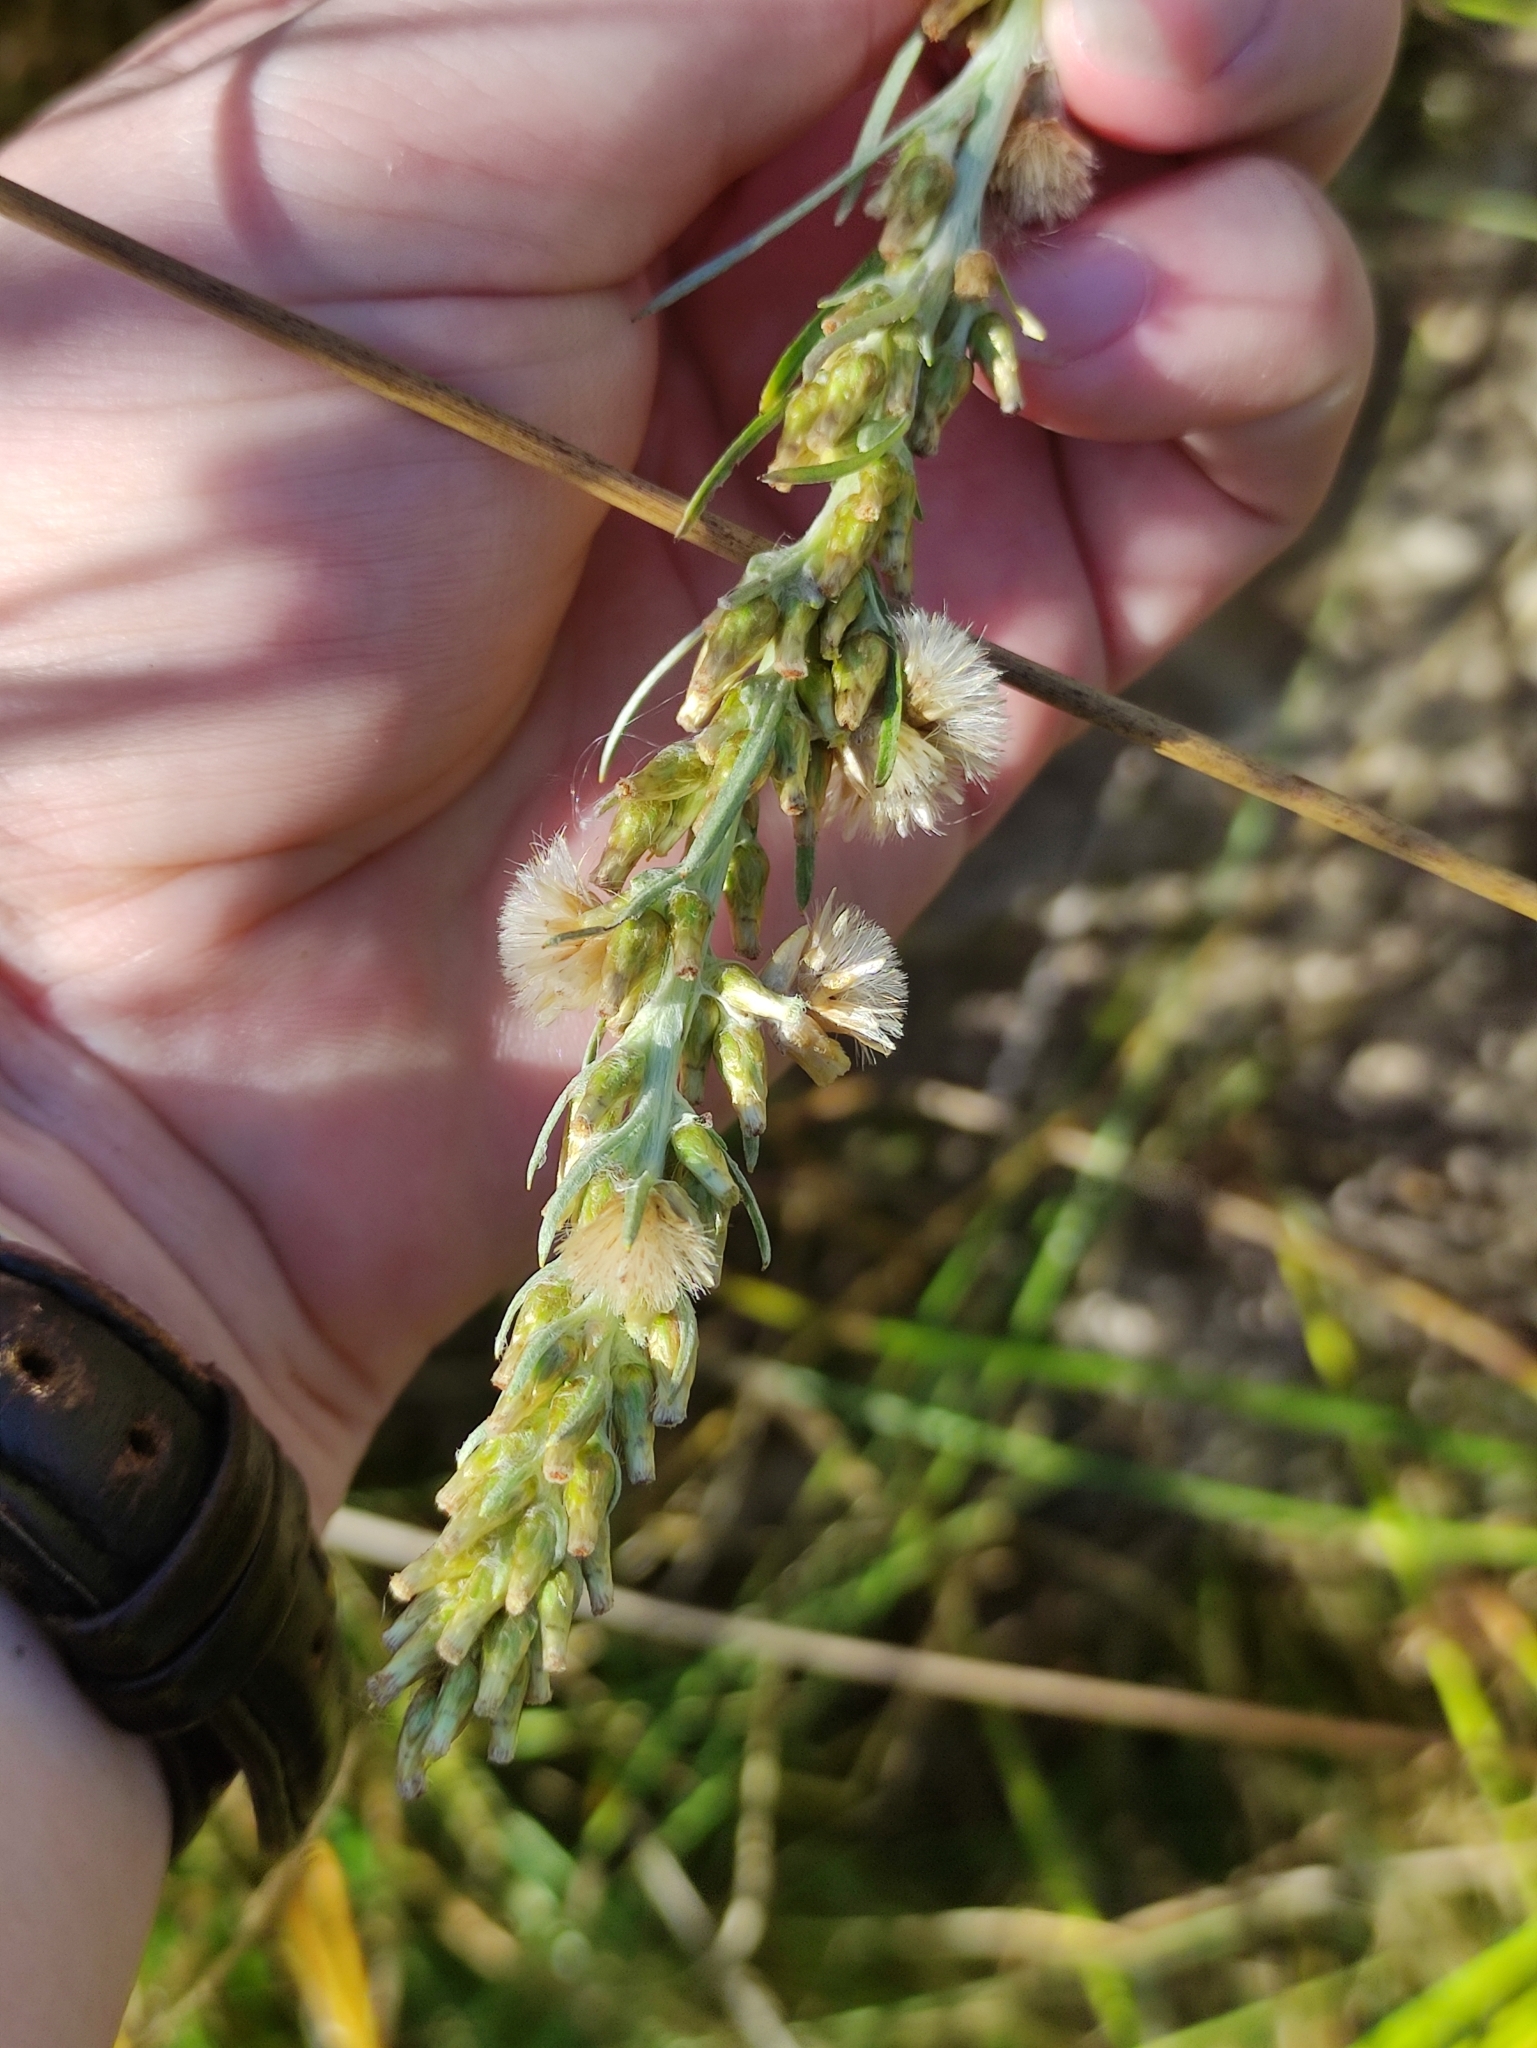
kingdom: Plantae
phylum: Tracheophyta
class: Magnoliopsida
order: Asterales
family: Asteraceae
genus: Omalotheca
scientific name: Omalotheca sylvatica
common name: Heath cudweed
